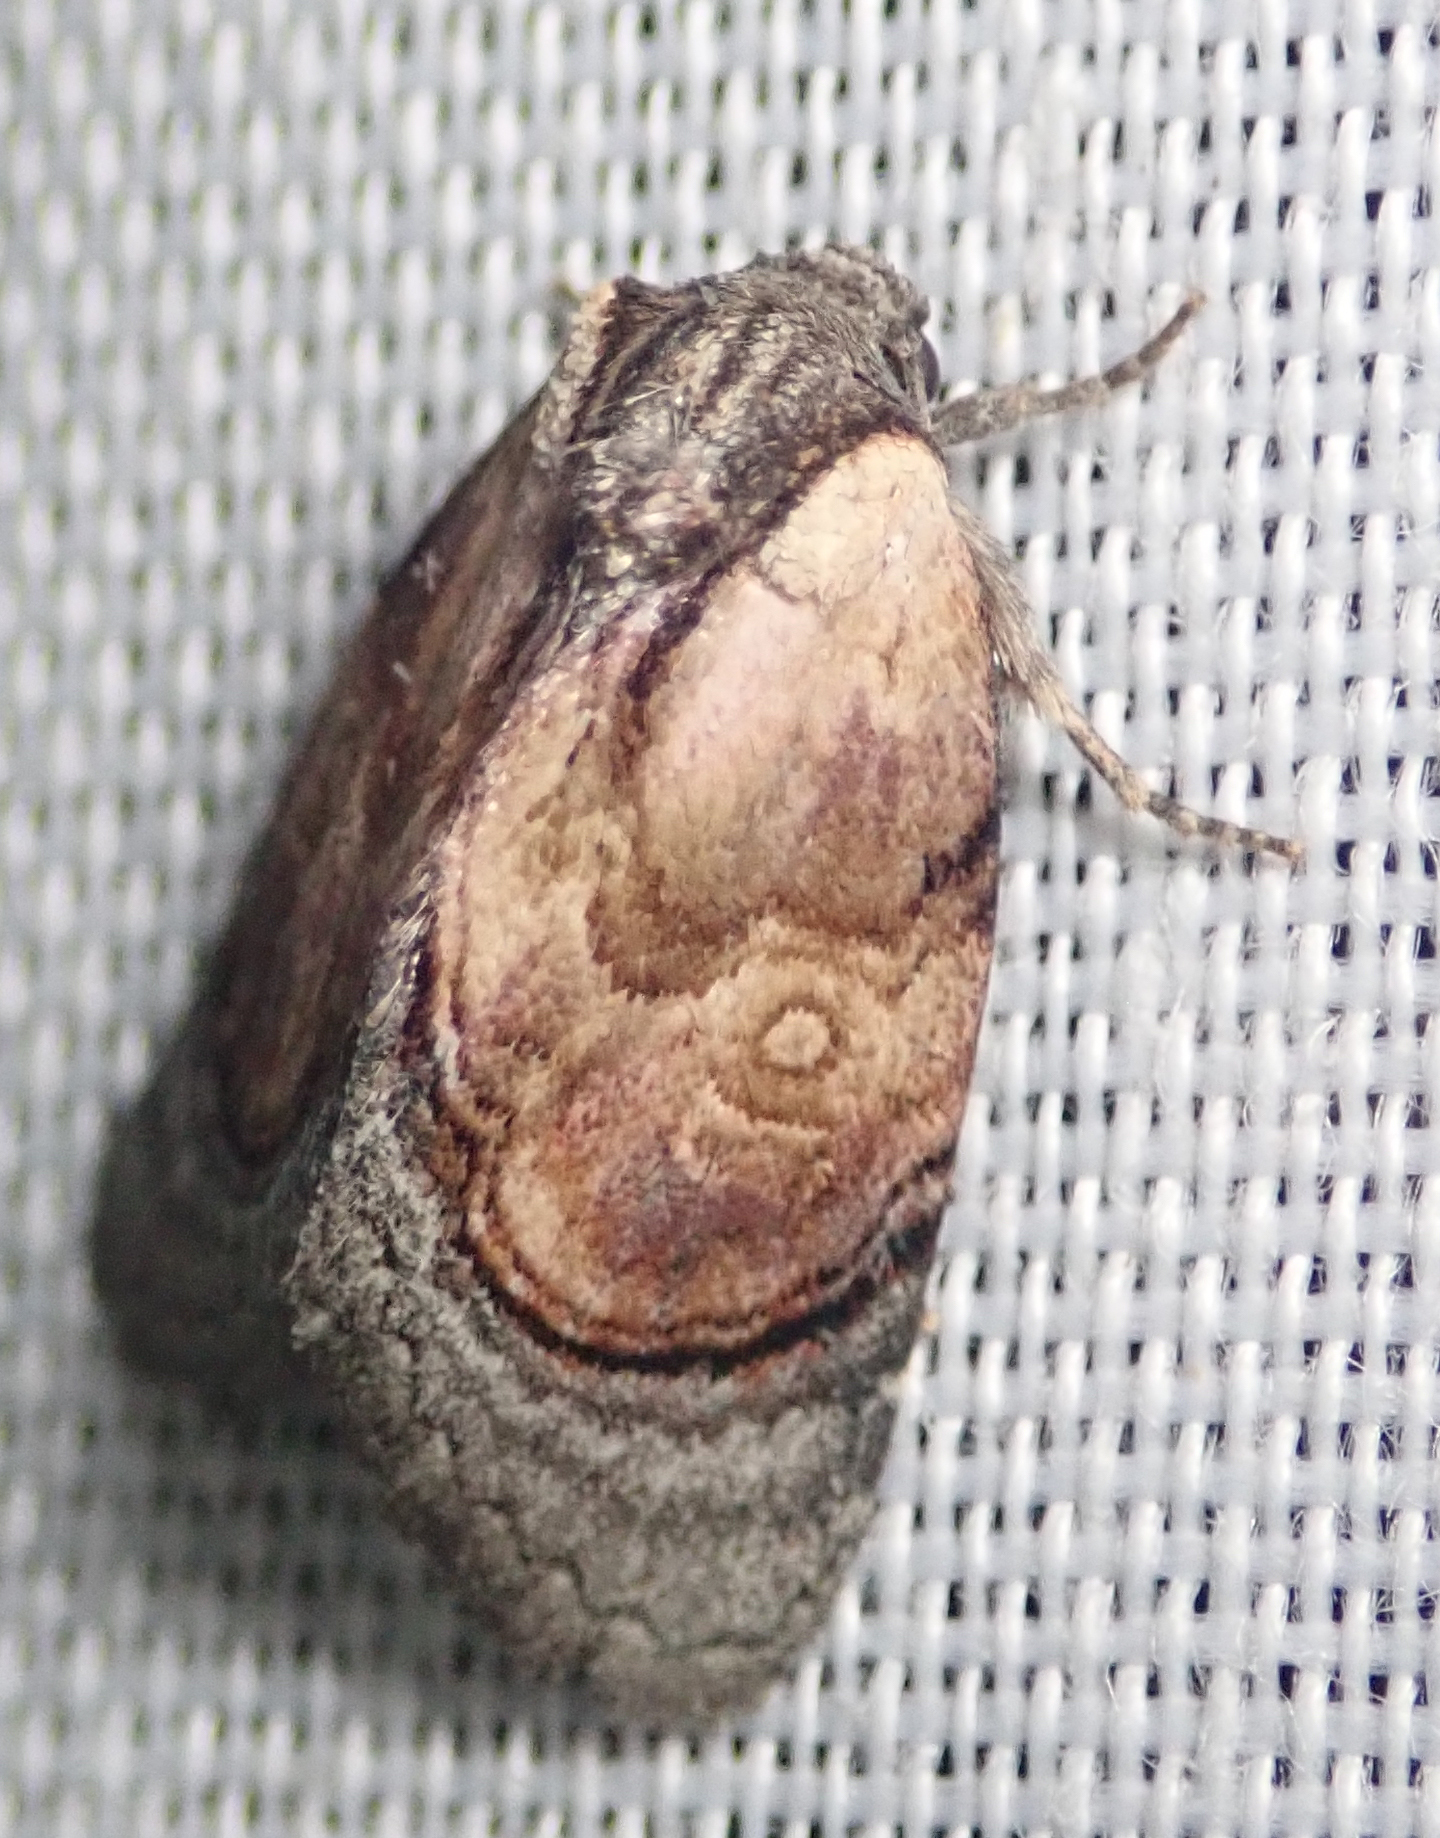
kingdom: Animalia
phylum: Arthropoda
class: Insecta
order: Lepidoptera
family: Noctuidae
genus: Paracroria
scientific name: Paracroria
